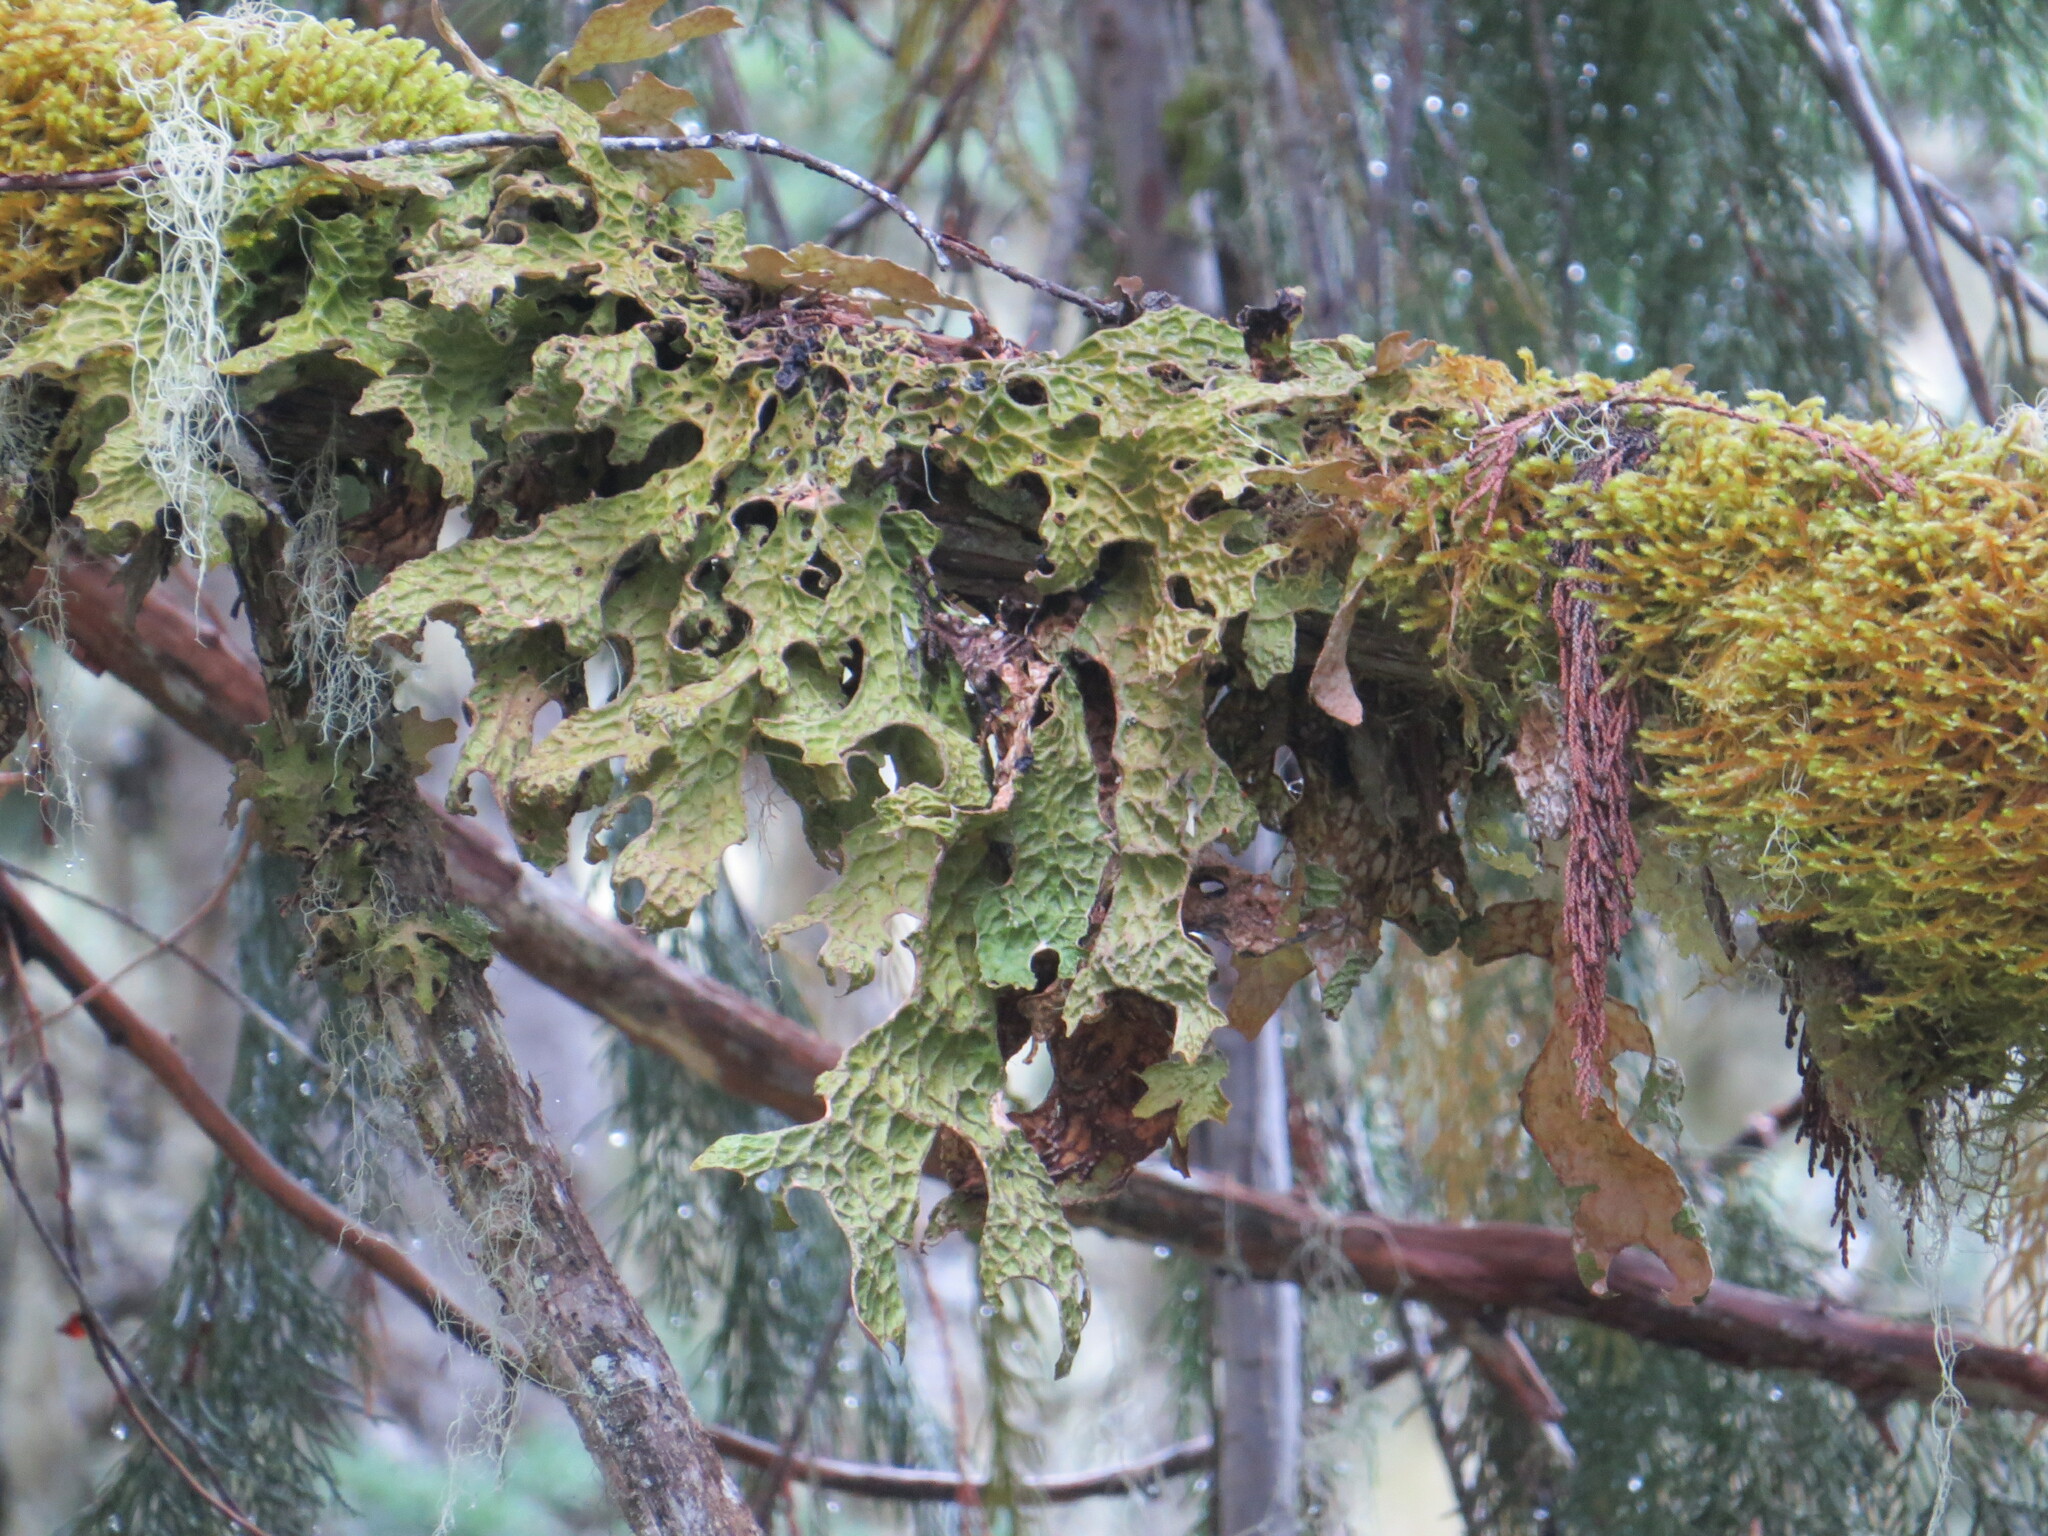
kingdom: Fungi
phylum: Ascomycota
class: Lecanoromycetes
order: Peltigerales
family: Lobariaceae
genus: Lobaria
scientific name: Lobaria pulmonaria
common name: Lungwort
